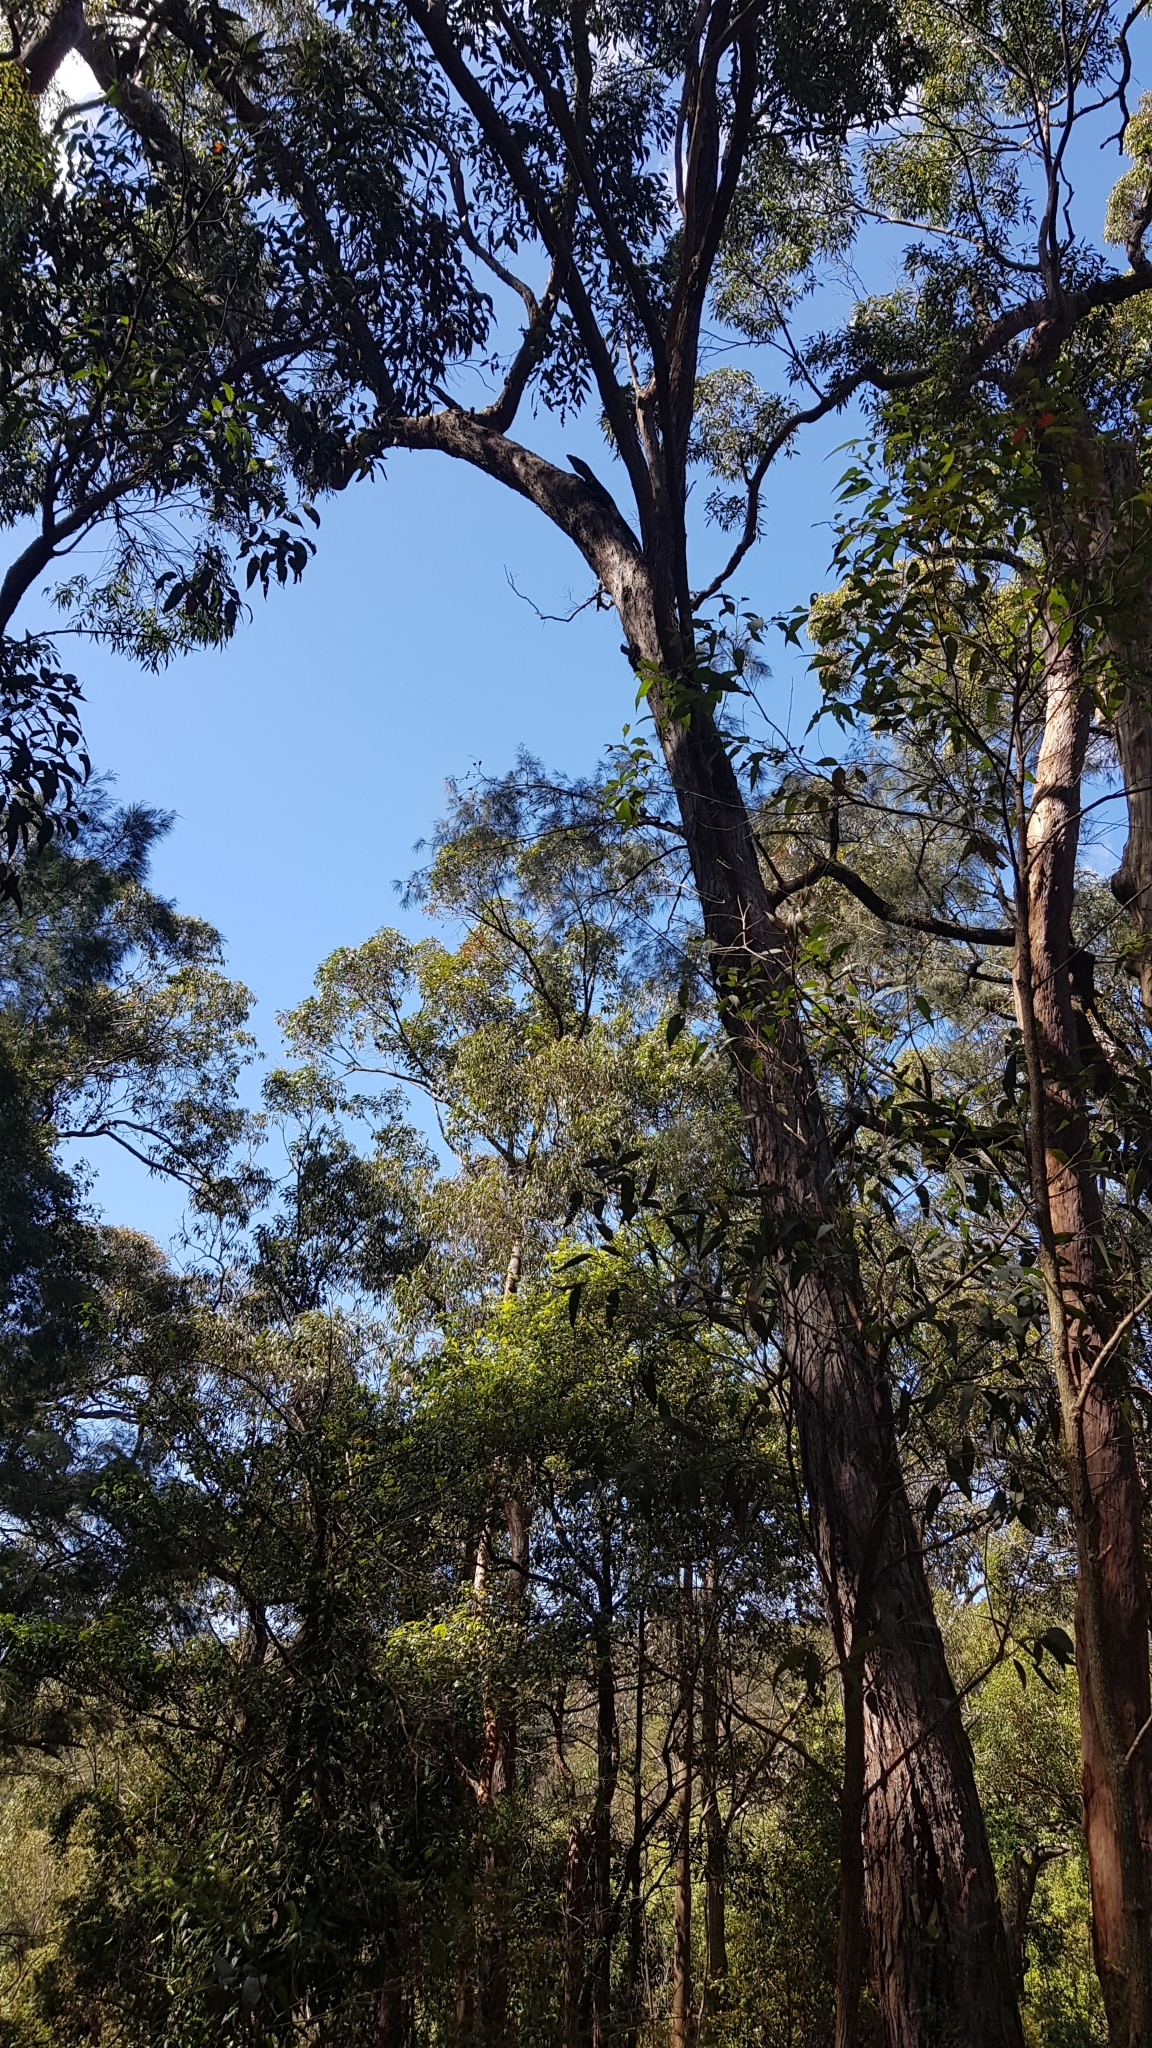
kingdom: Animalia
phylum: Chordata
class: Squamata
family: Varanidae
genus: Varanus
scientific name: Varanus varius
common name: Lace monitor
